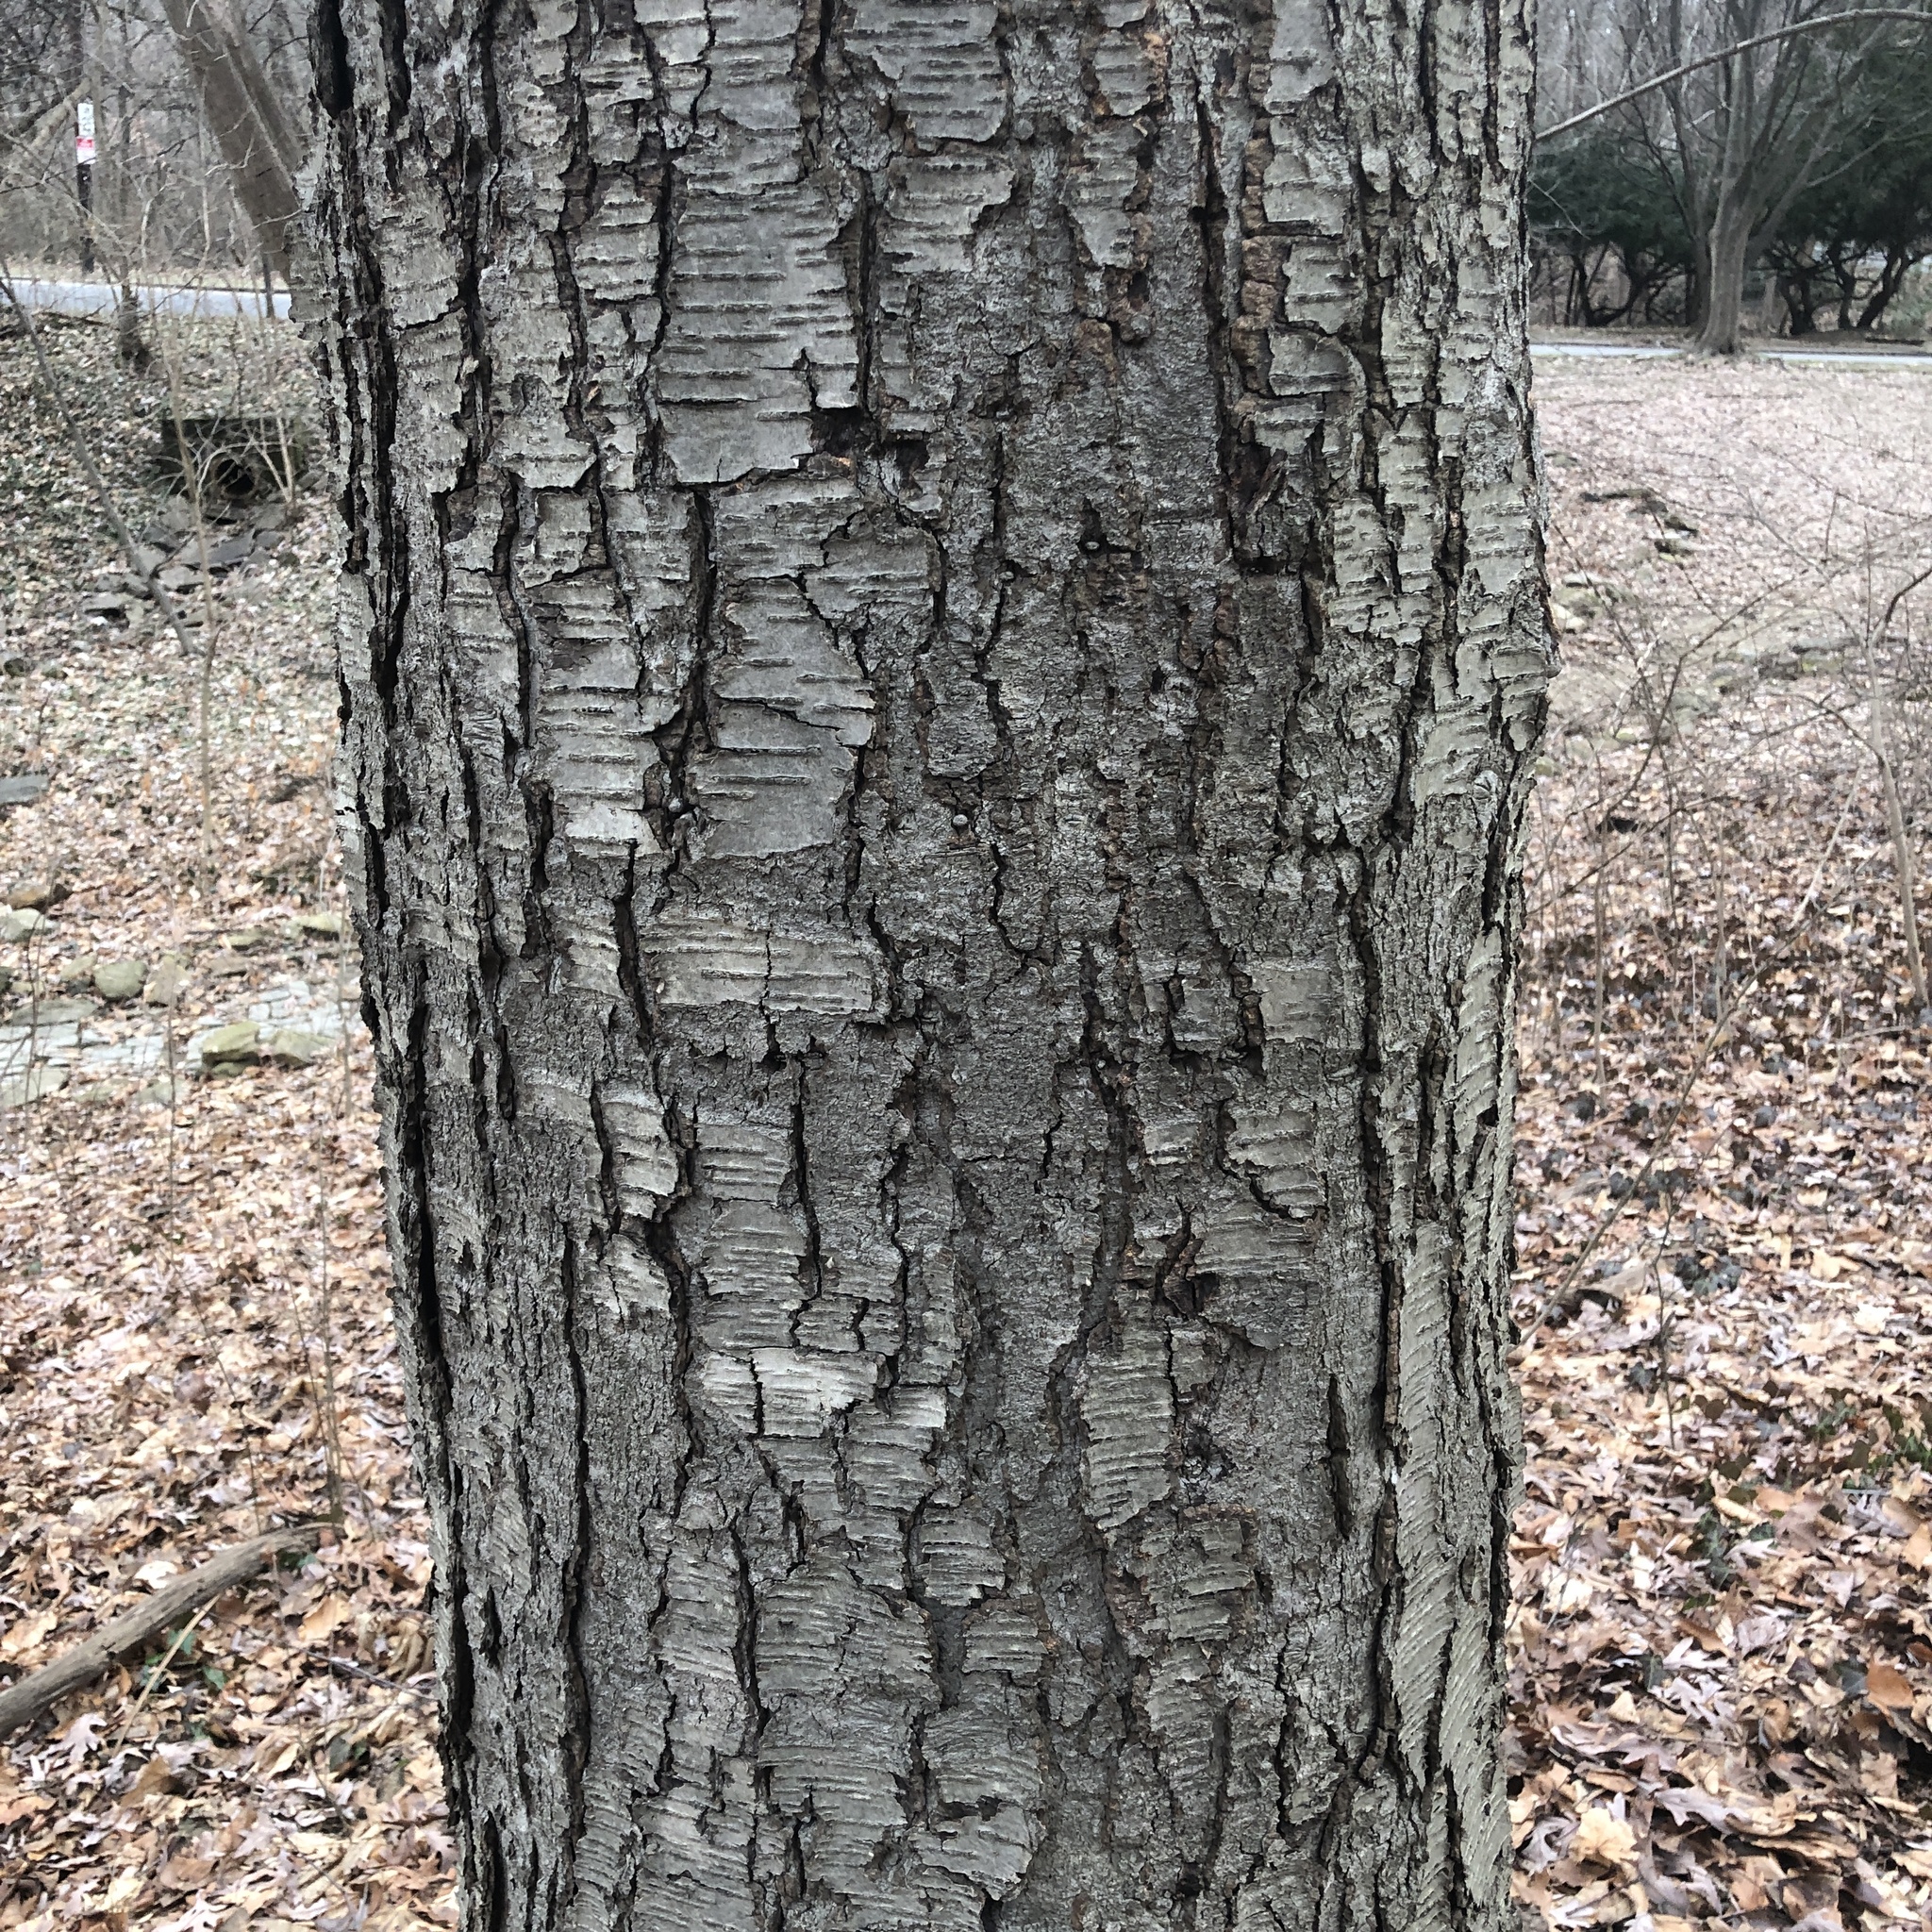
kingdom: Plantae
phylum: Tracheophyta
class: Magnoliopsida
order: Fagales
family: Betulaceae
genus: Betula
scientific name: Betula lenta
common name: Black birch
